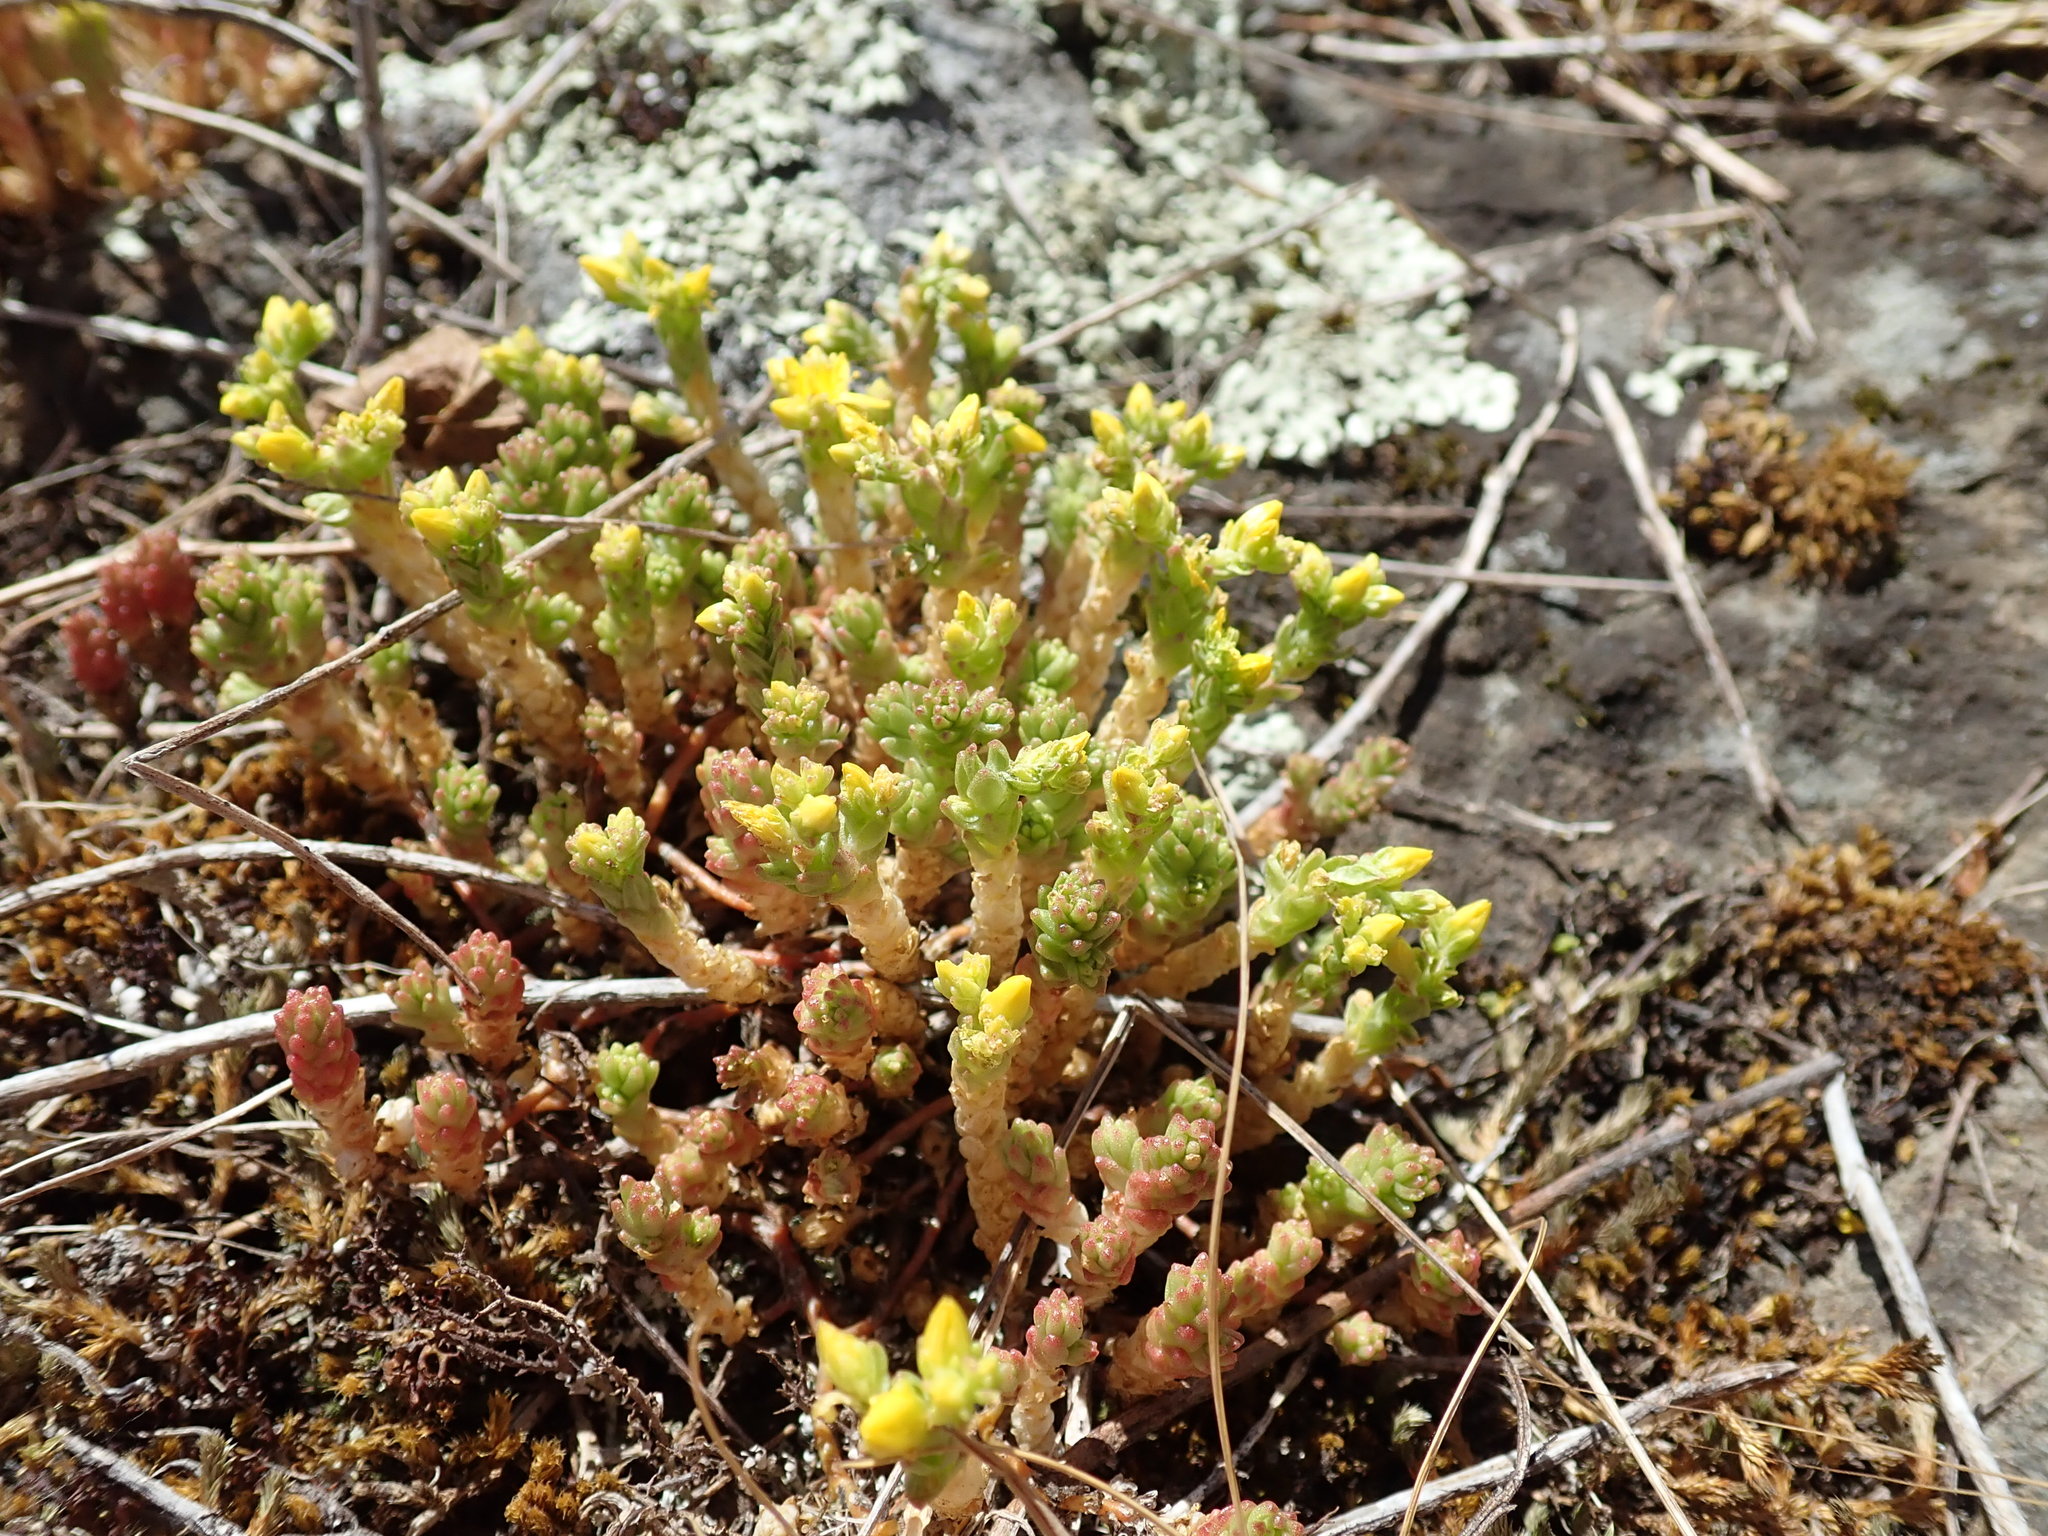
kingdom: Plantae
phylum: Tracheophyta
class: Magnoliopsida
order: Saxifragales
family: Crassulaceae
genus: Sedum
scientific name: Sedum acre
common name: Biting stonecrop
